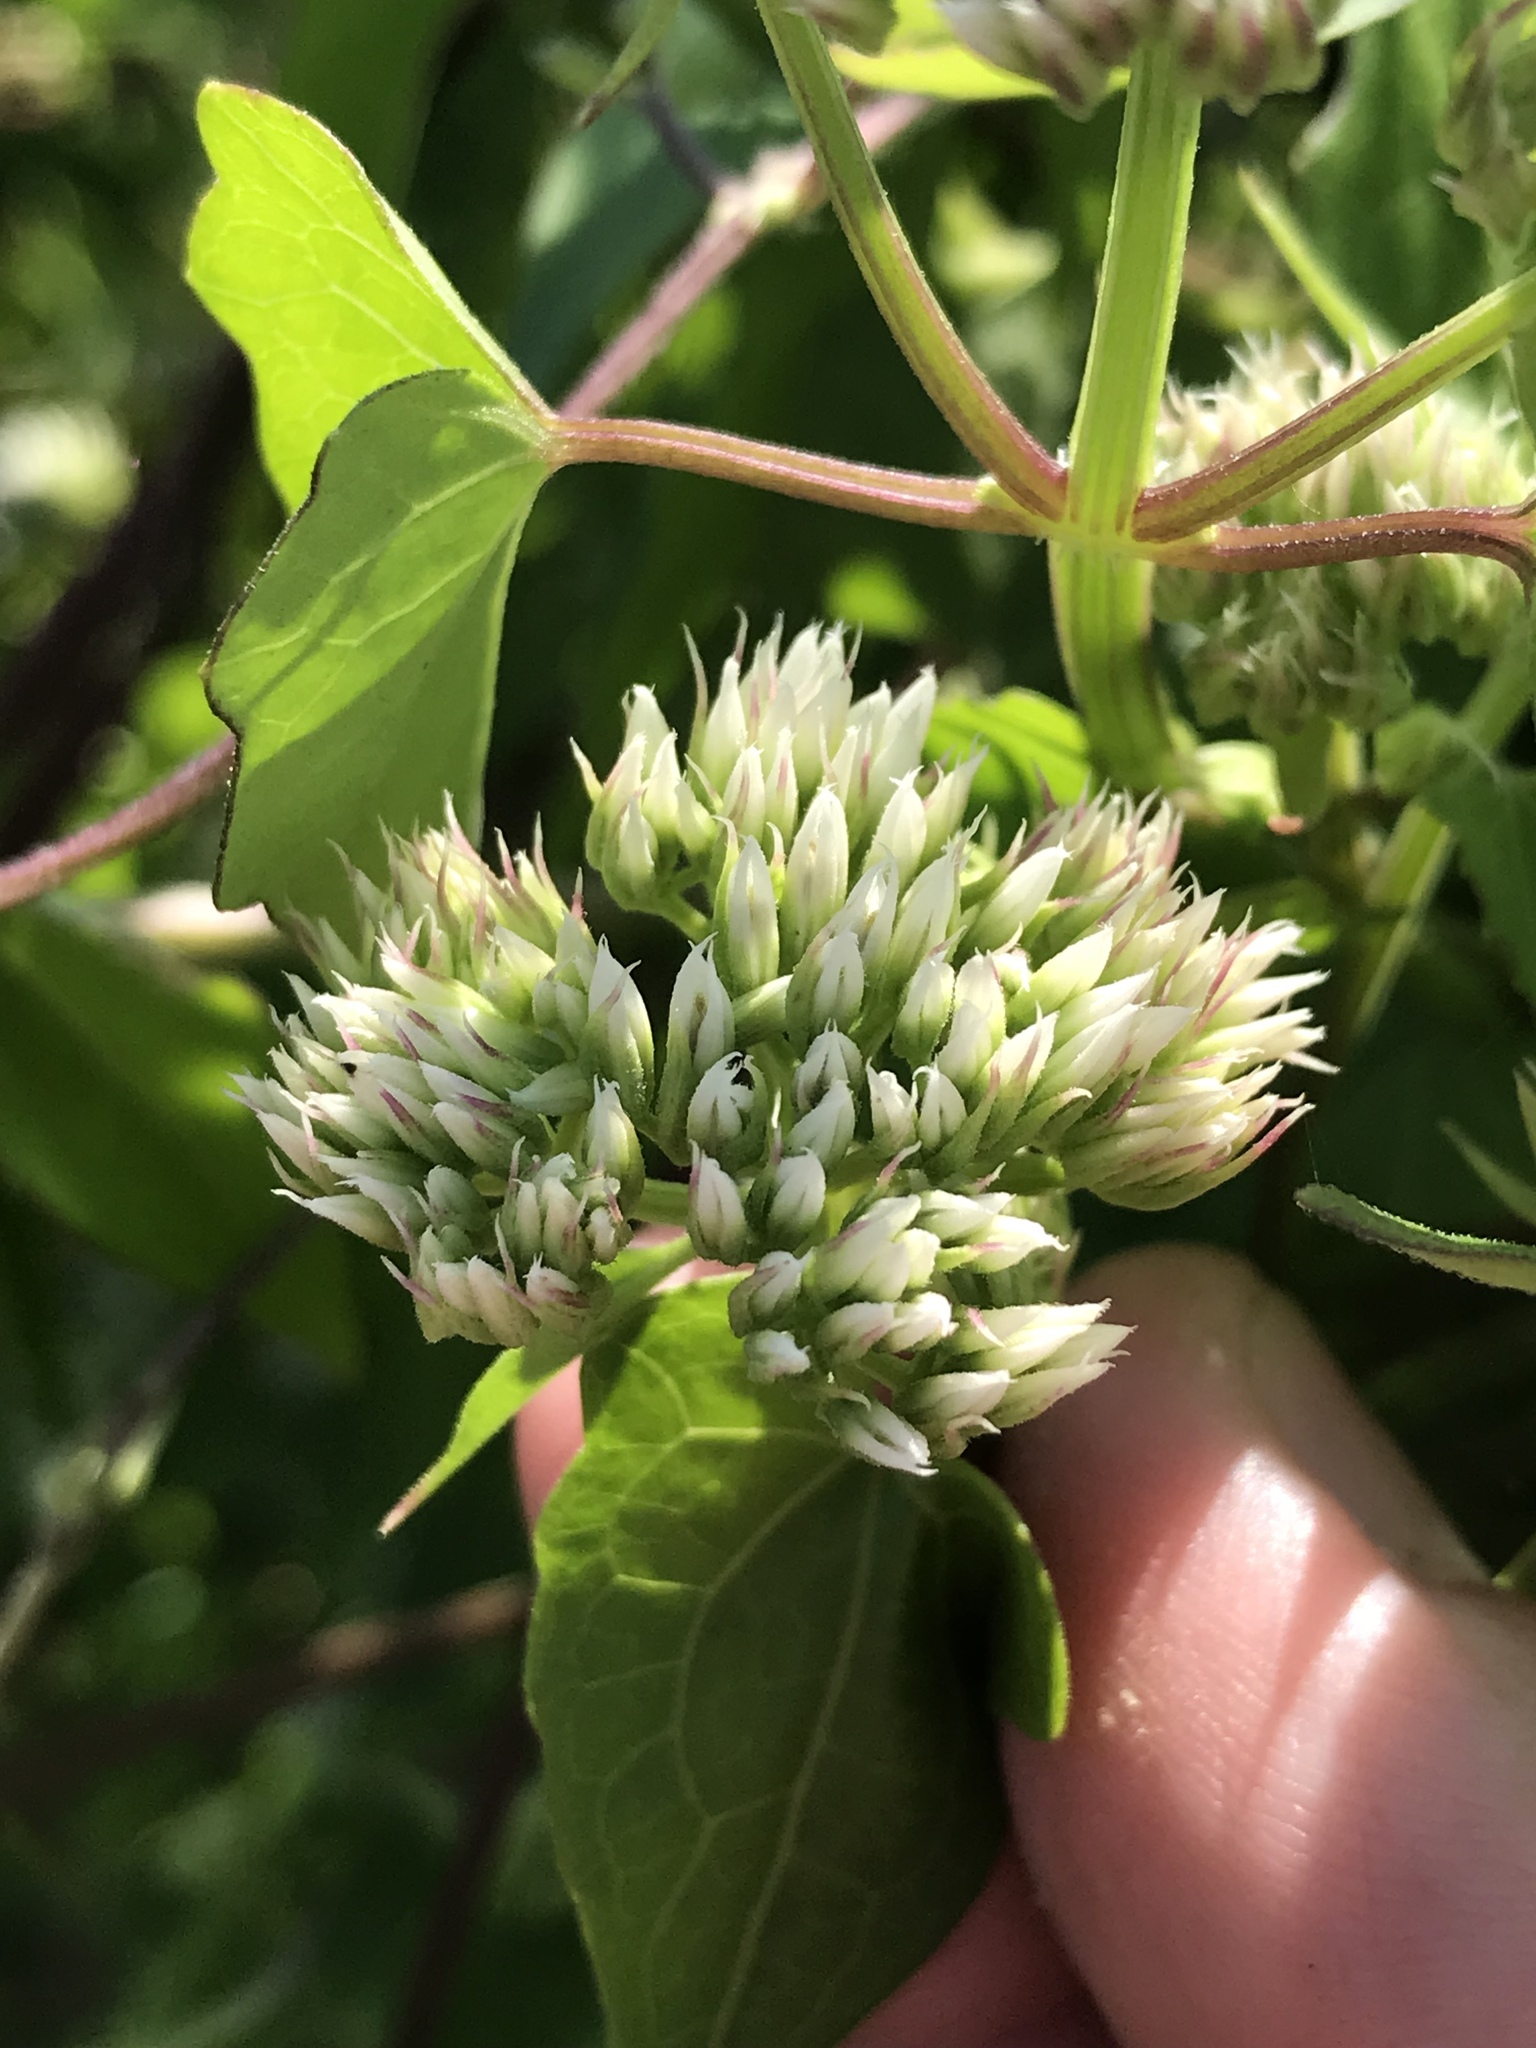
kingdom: Plantae
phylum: Tracheophyta
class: Magnoliopsida
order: Asterales
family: Asteraceae
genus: Mikania
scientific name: Mikania scandens
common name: Climbing hempvine
